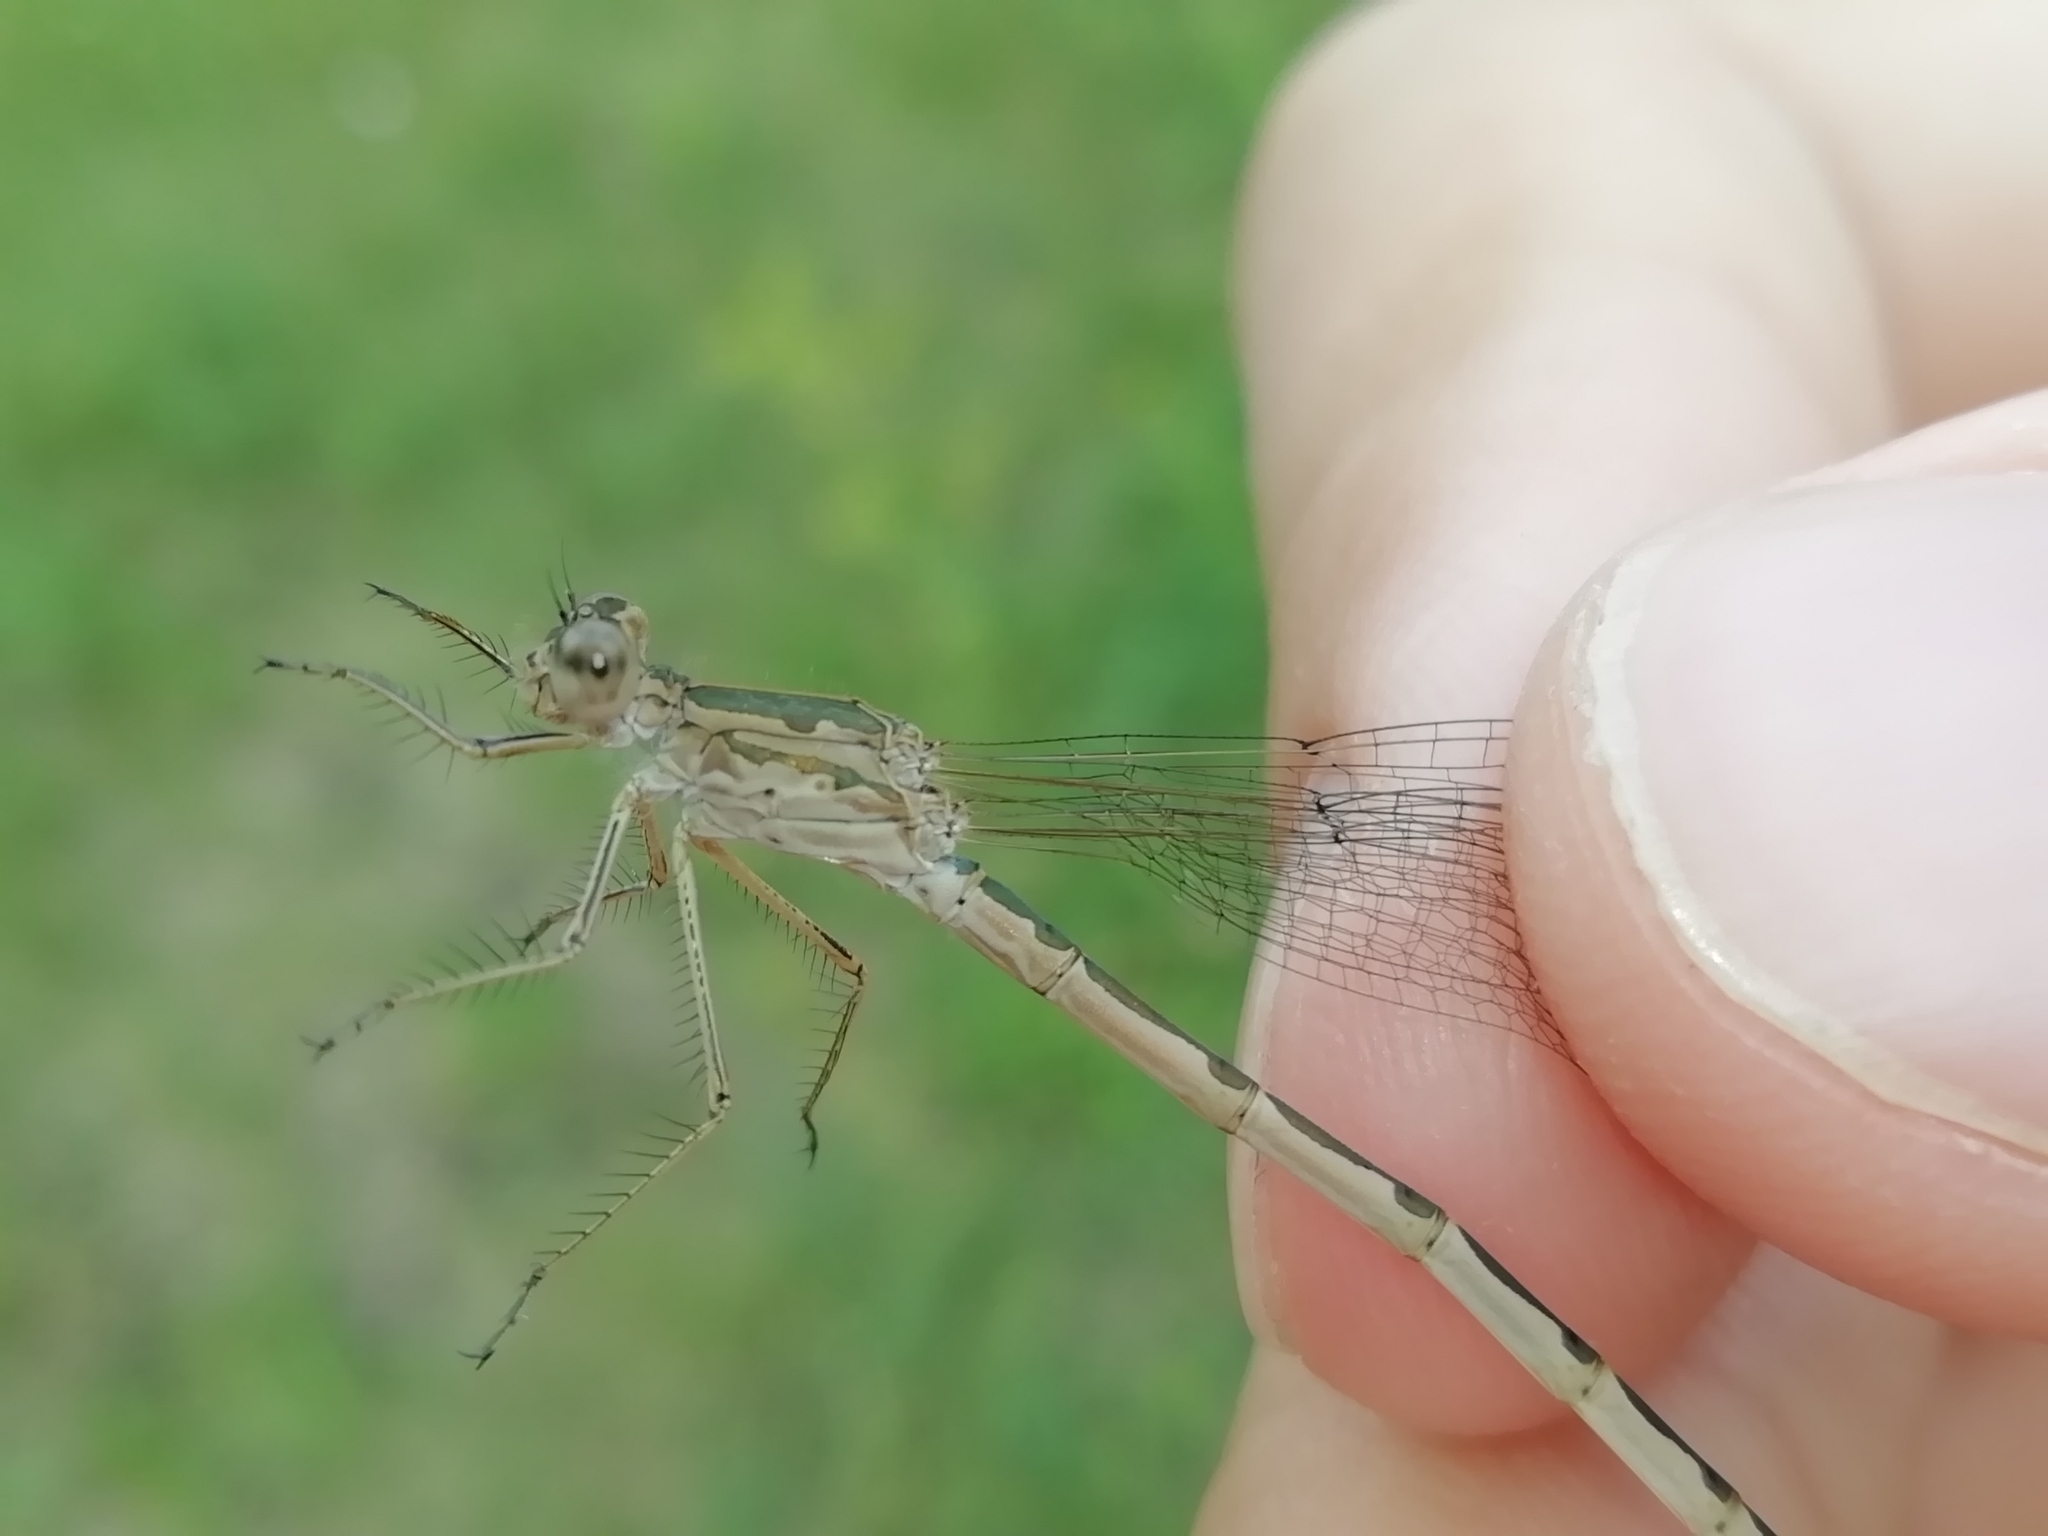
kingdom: Animalia
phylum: Arthropoda
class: Insecta
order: Odonata
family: Lestidae
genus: Sympecma
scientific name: Sympecma paedisca
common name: Siberian winter damsel
